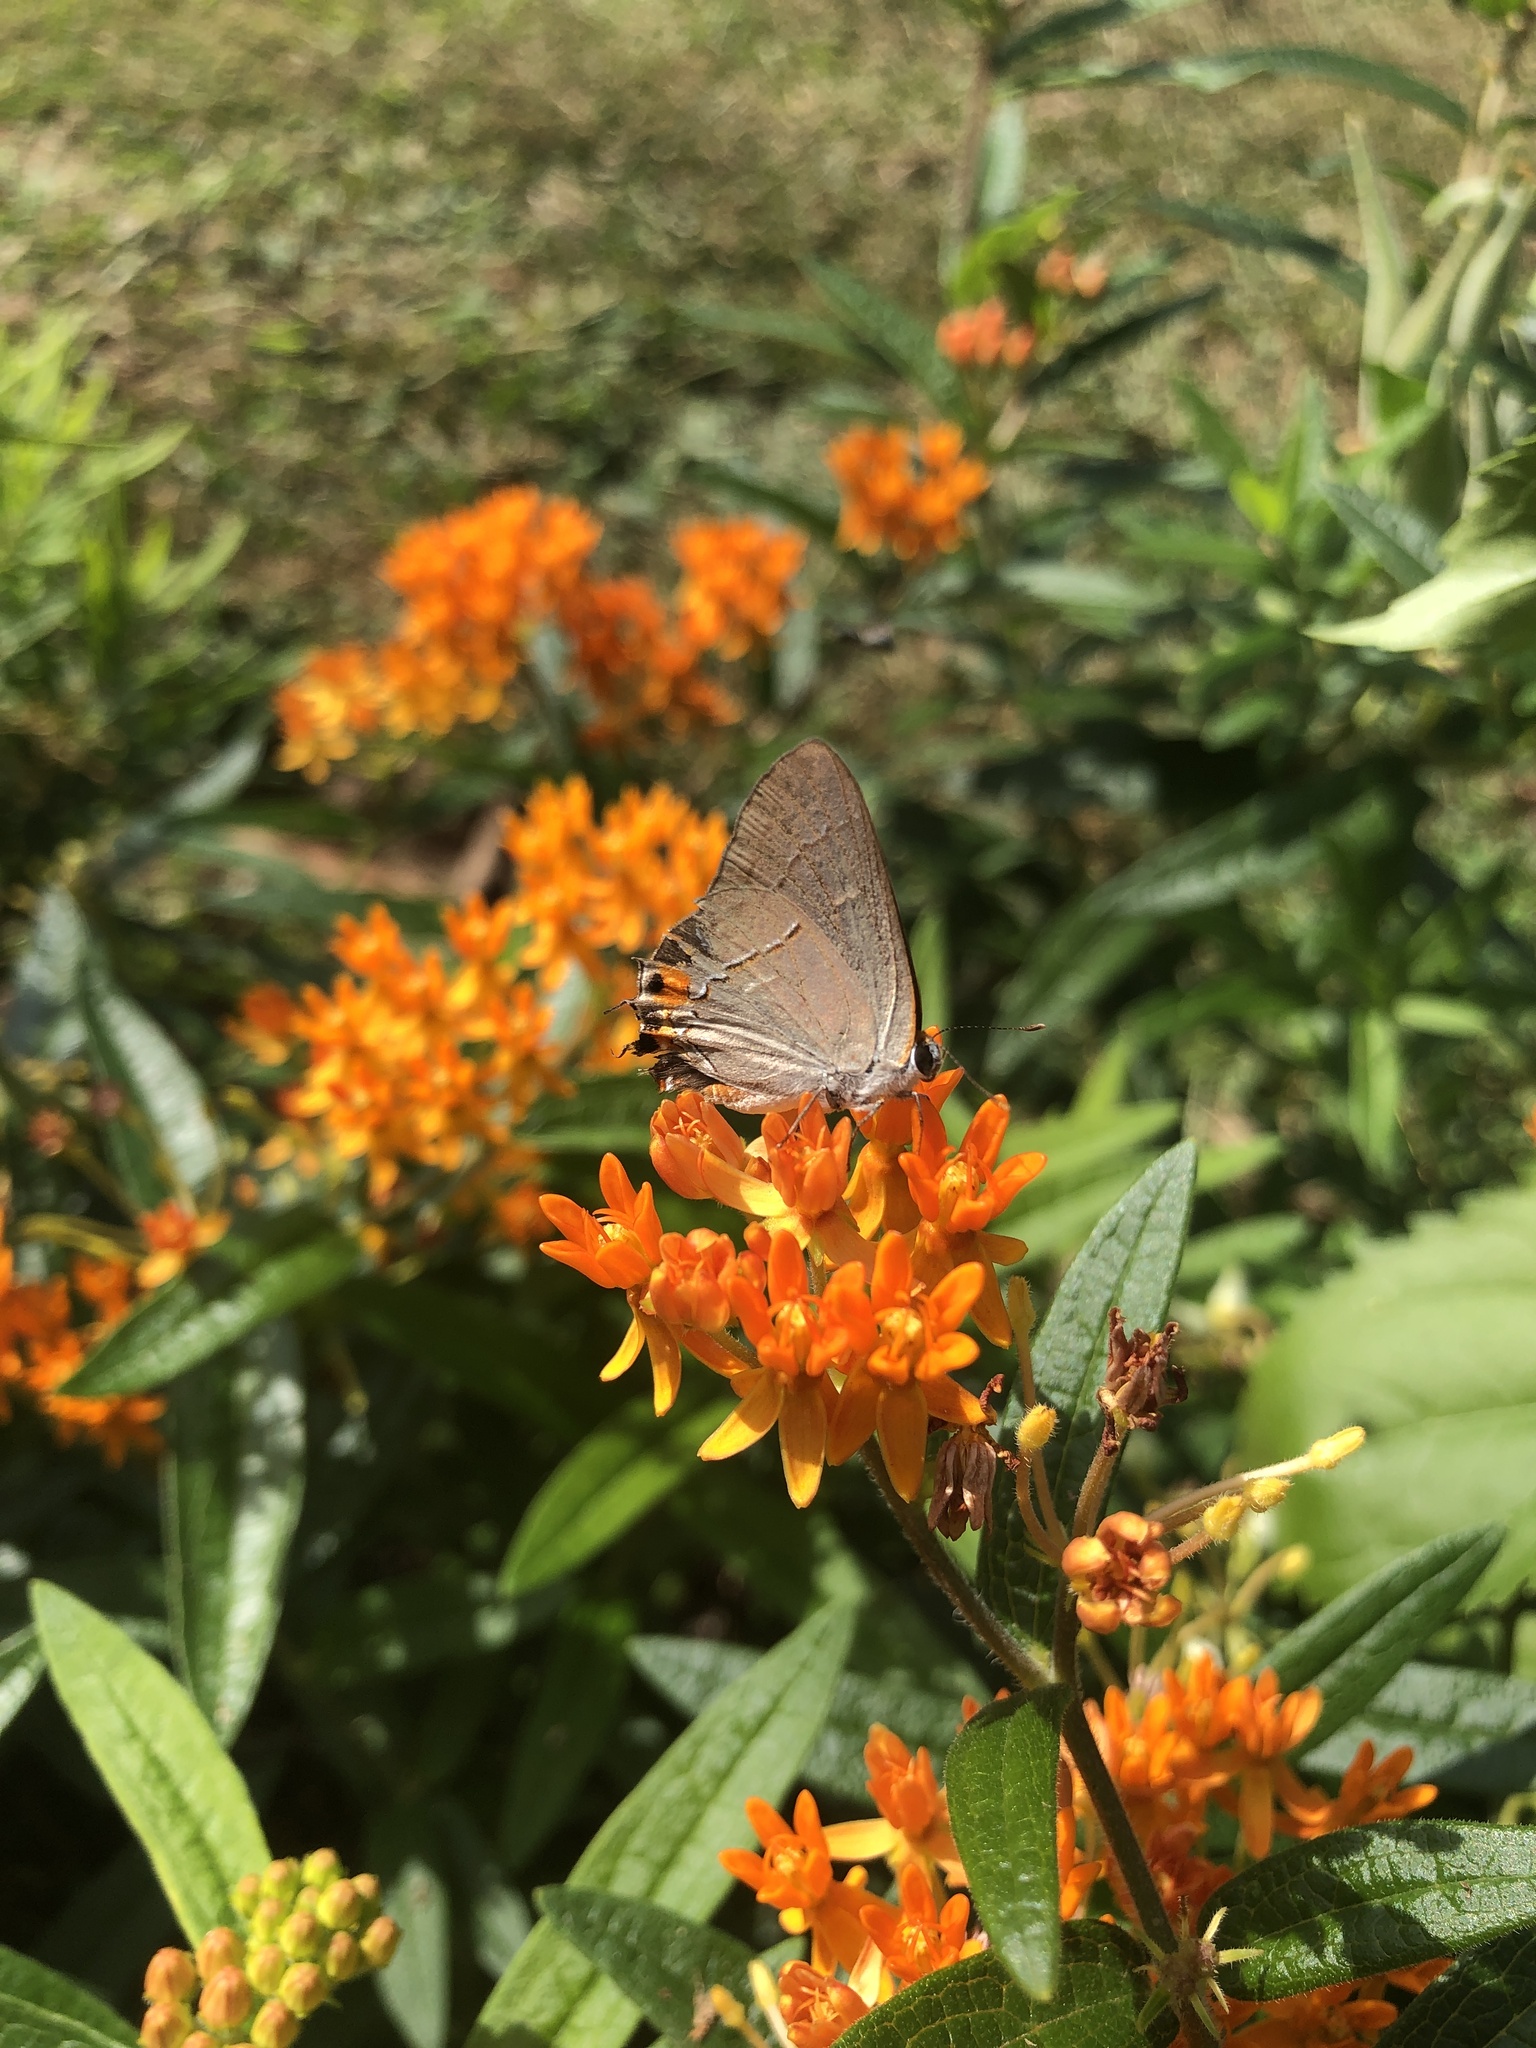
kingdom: Animalia
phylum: Arthropoda
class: Insecta
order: Lepidoptera
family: Lycaenidae
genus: Strymon
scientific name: Strymon melinus
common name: Gray hairstreak
